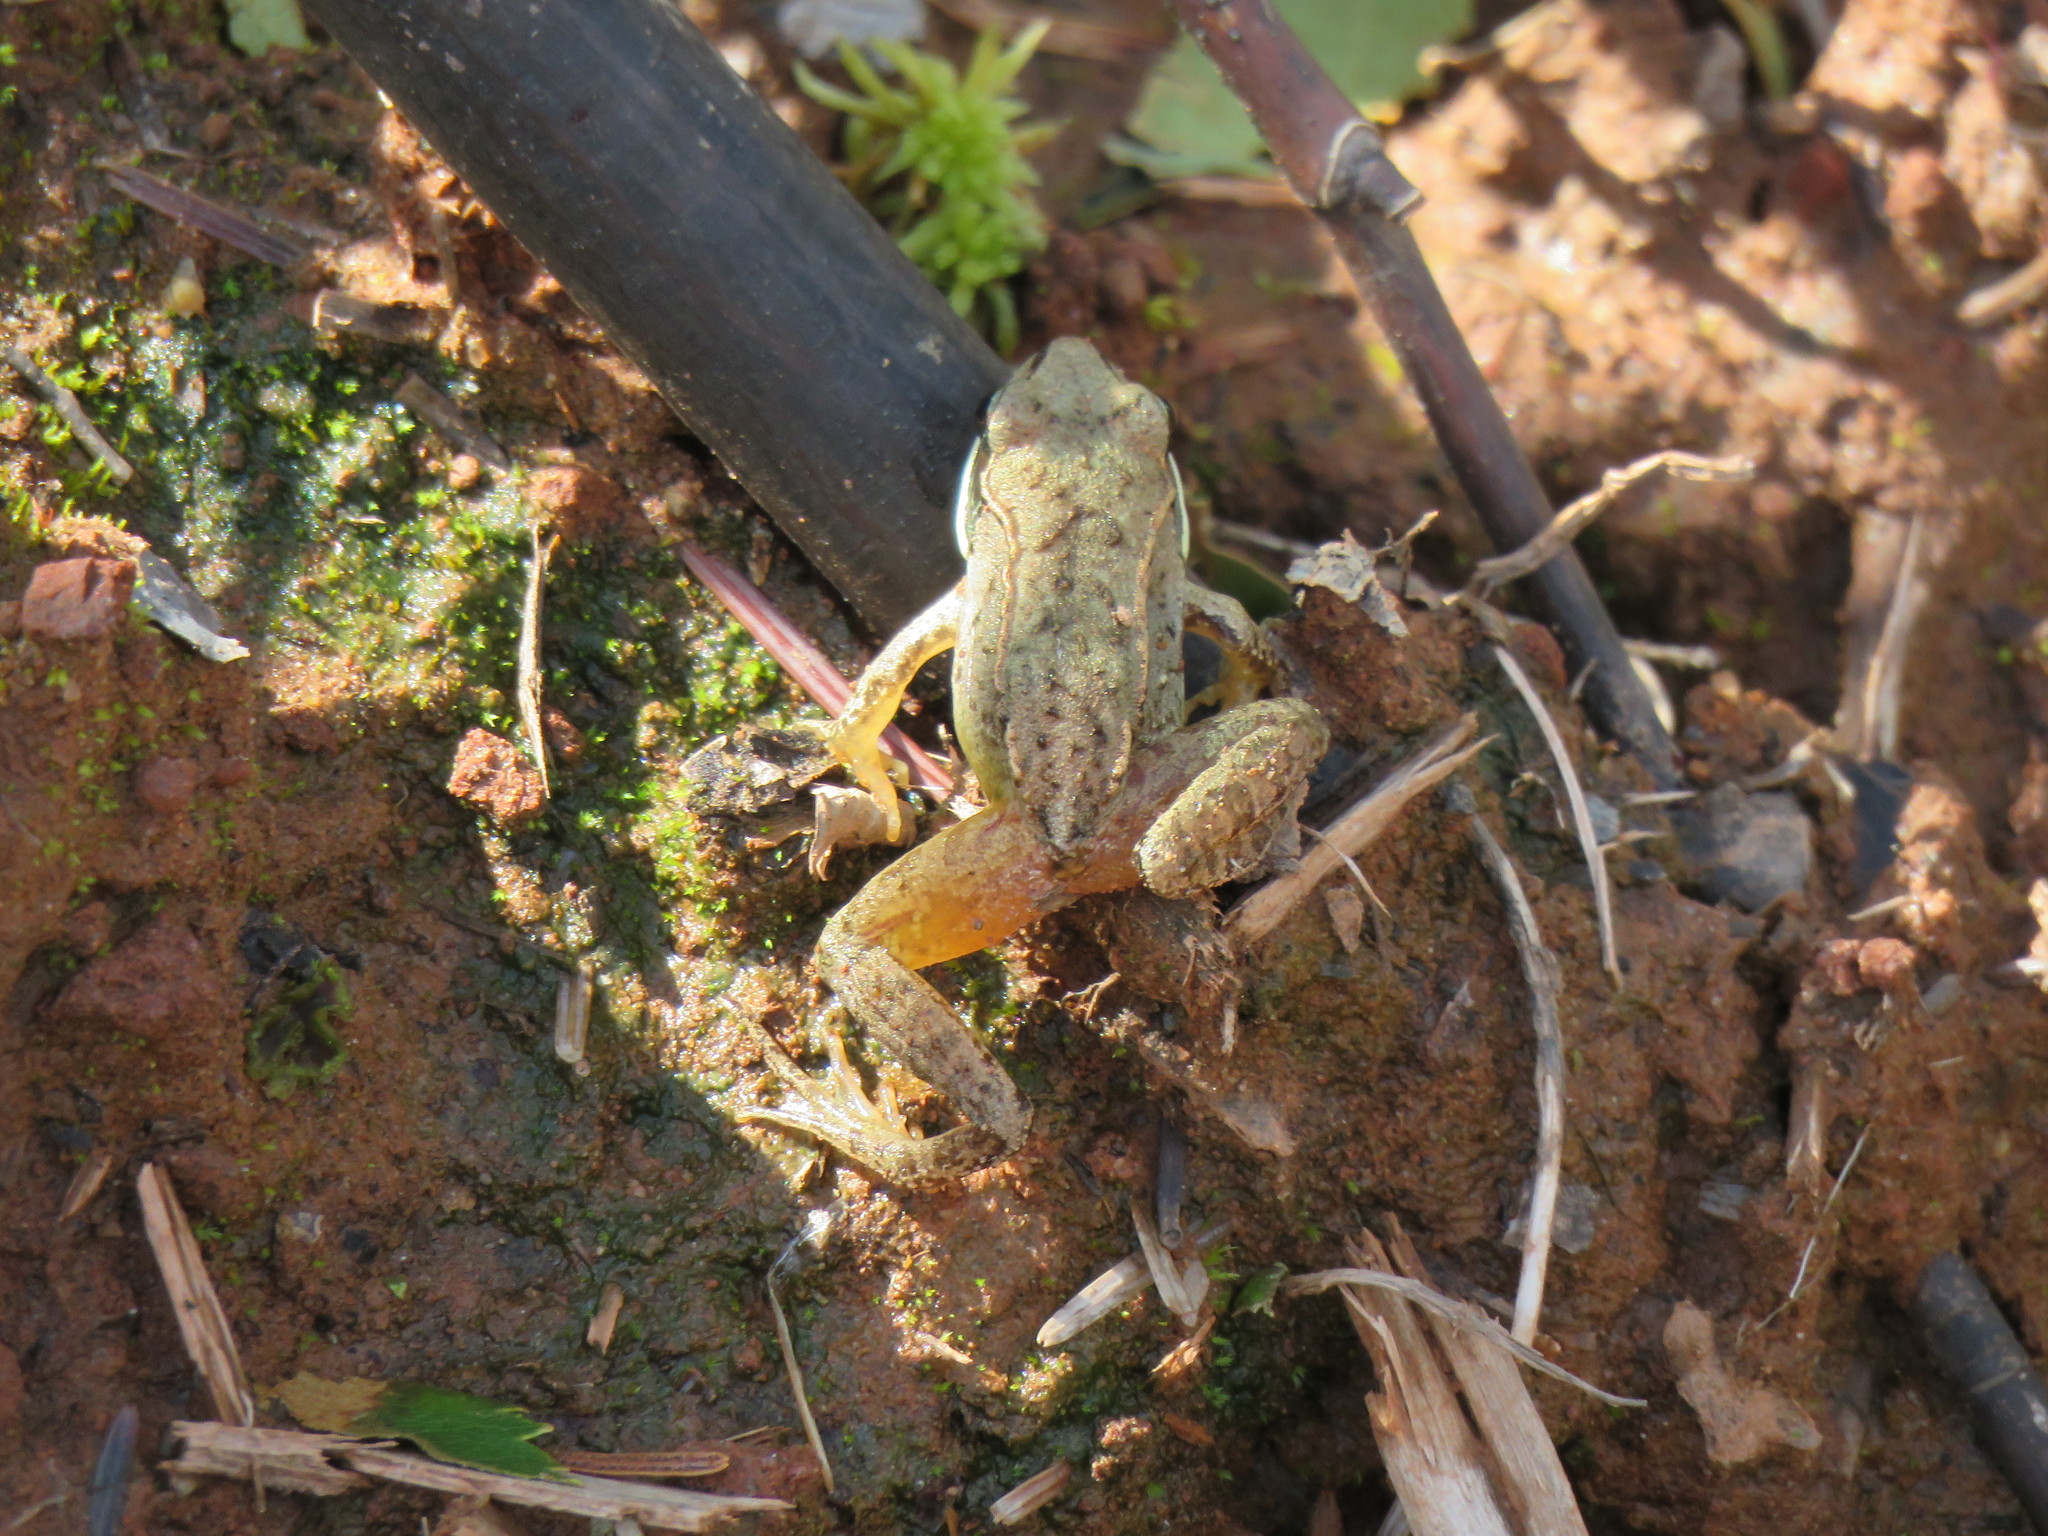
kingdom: Animalia
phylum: Chordata
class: Amphibia
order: Anura
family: Ranidae
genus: Lithobates
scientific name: Lithobates sylvaticus
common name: Wood frog
